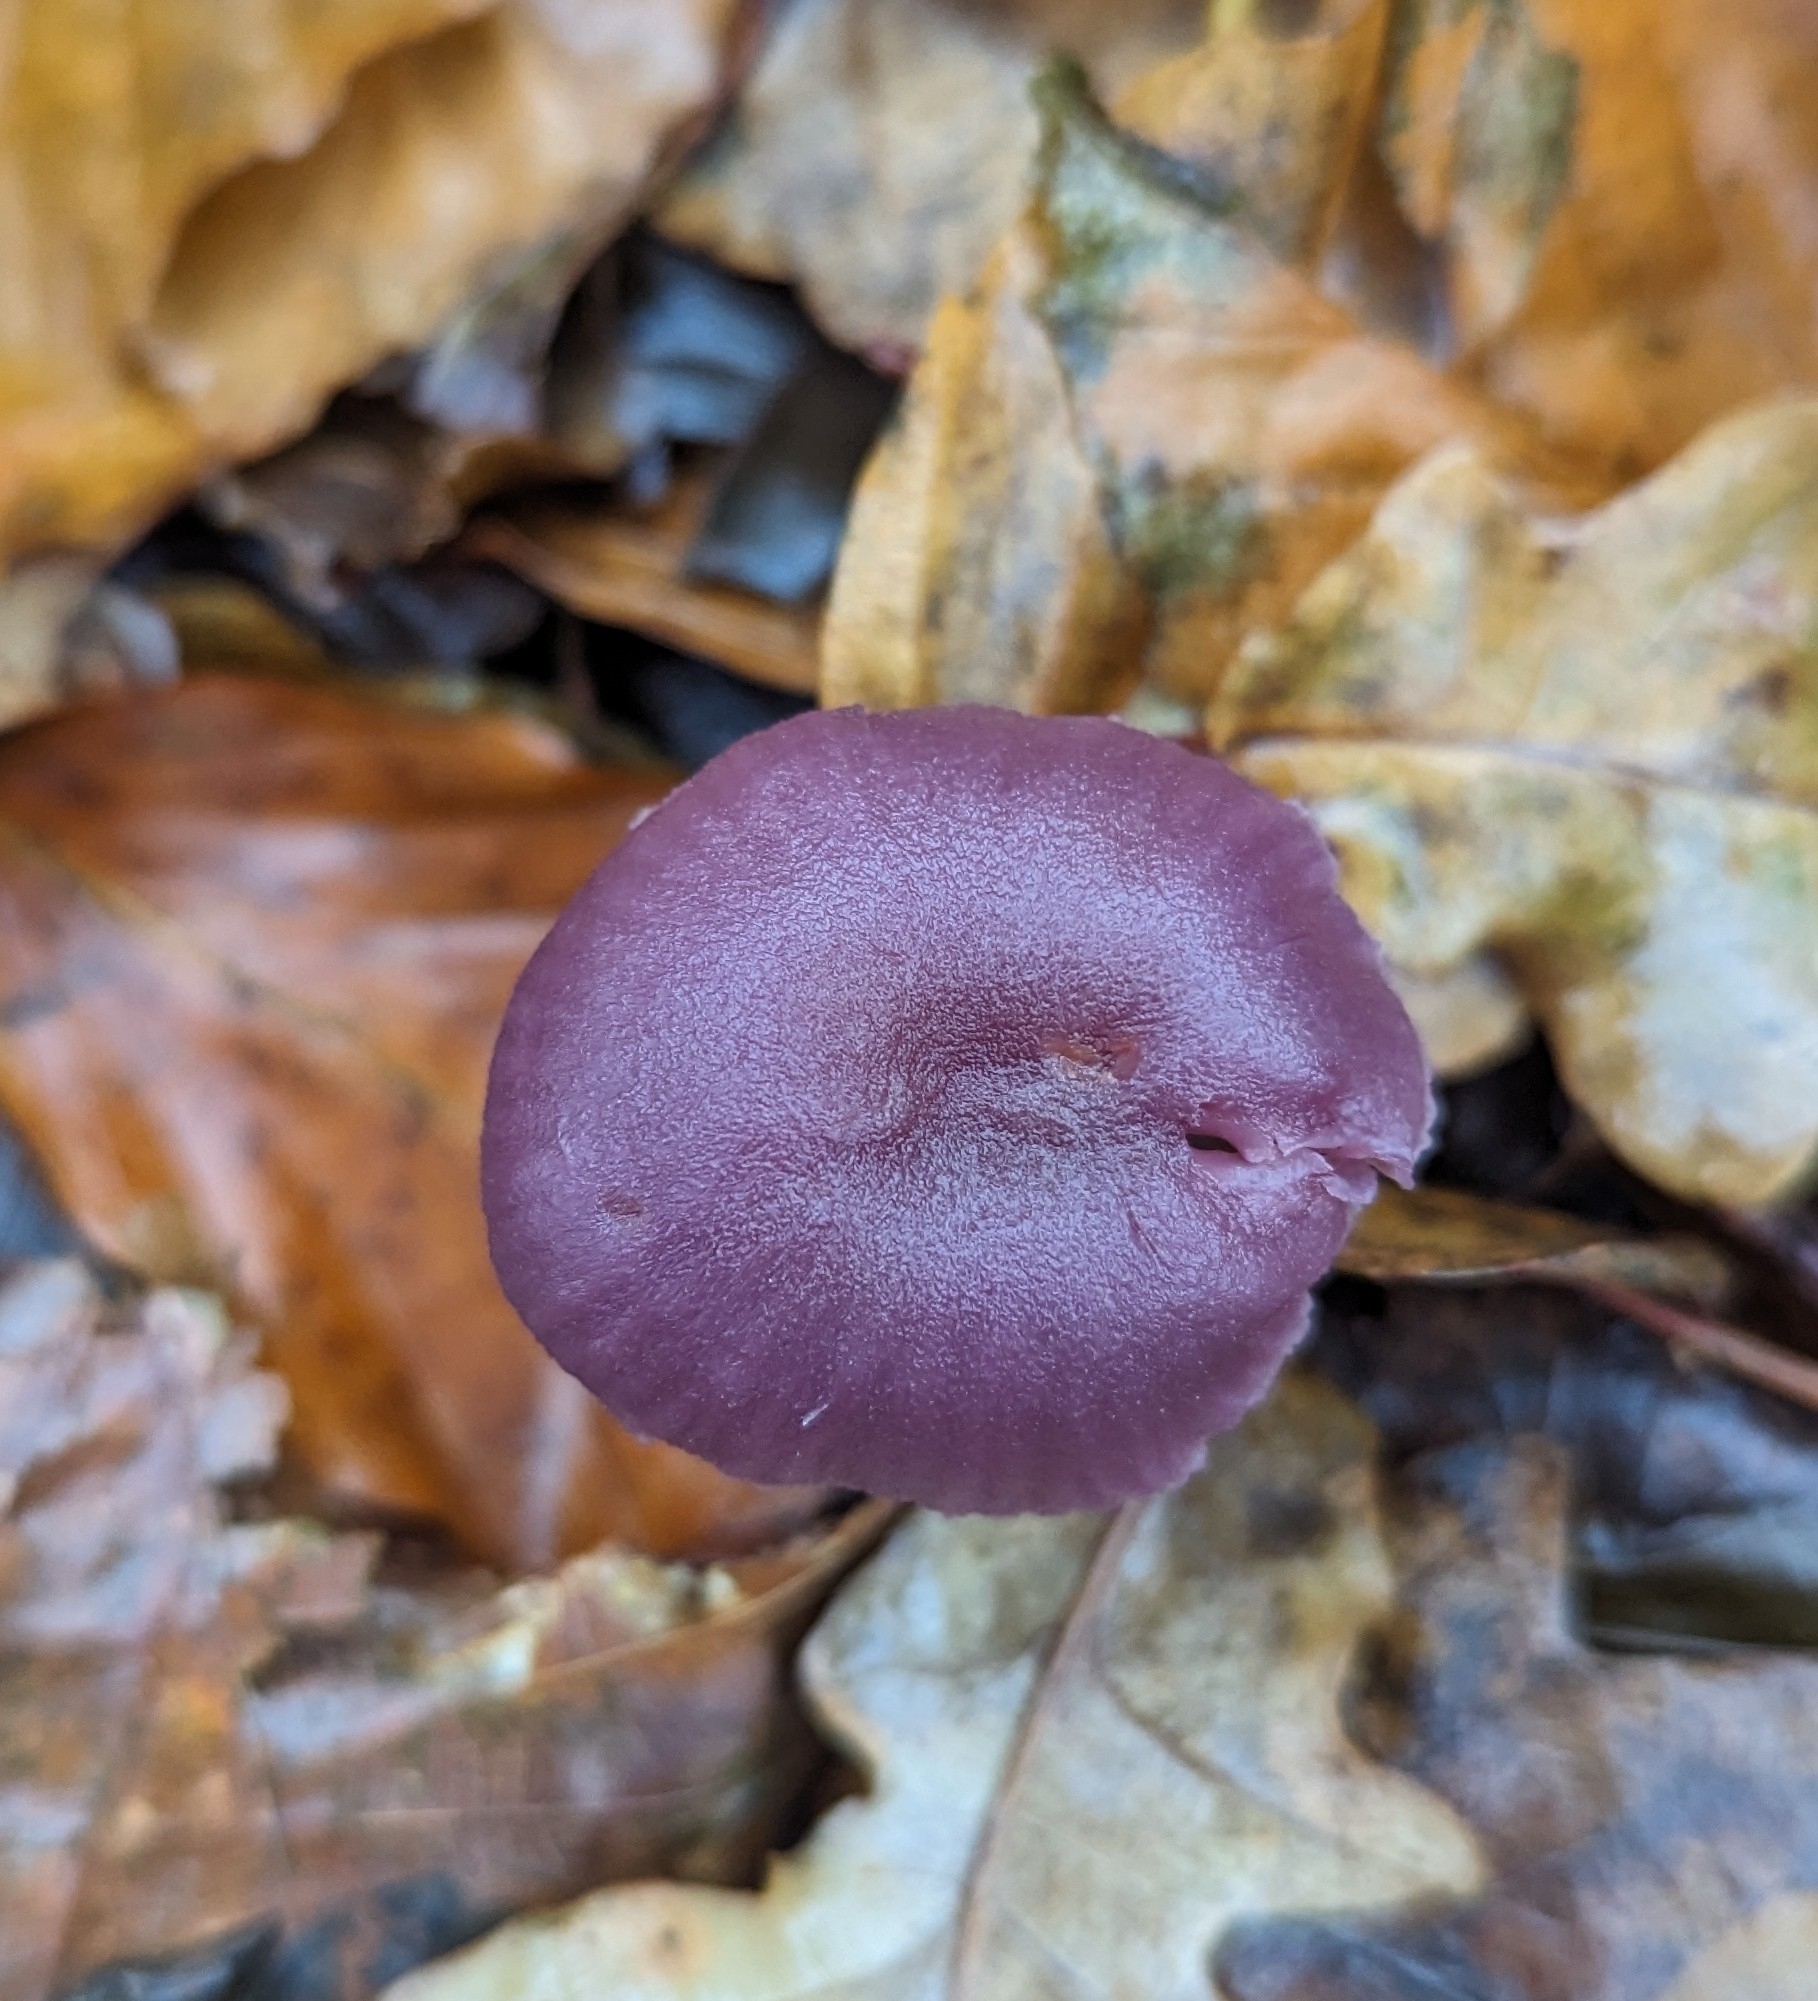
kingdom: Fungi
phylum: Basidiomycota
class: Agaricomycetes
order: Agaricales
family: Hydnangiaceae
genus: Laccaria
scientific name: Laccaria amethystina
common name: Amethyst deceiver
